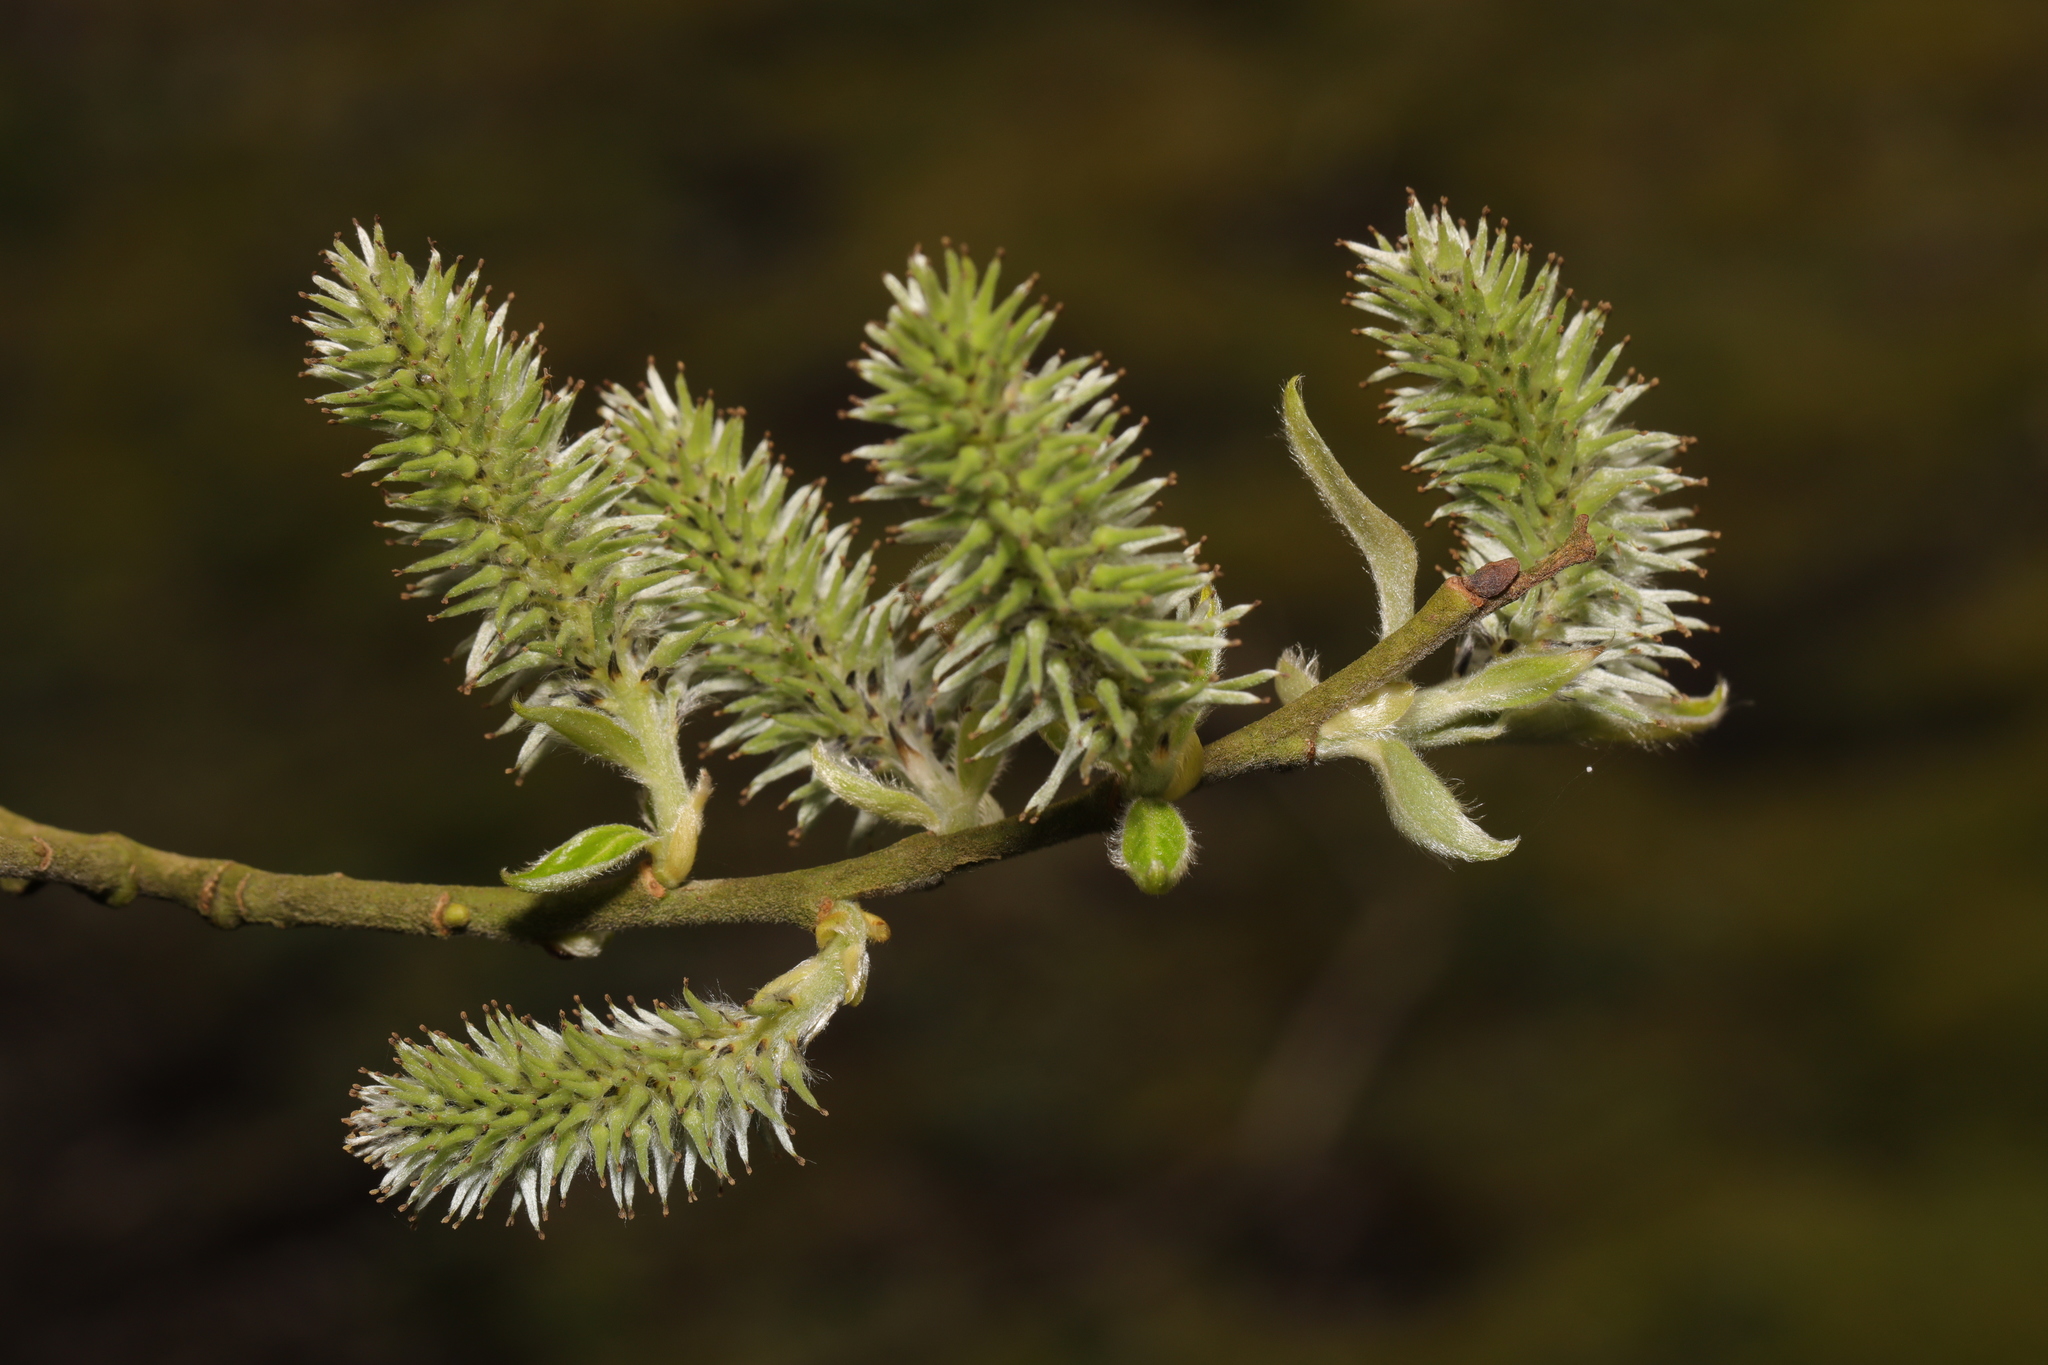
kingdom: Plantae
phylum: Tracheophyta
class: Magnoliopsida
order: Malpighiales
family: Salicaceae
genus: Salix
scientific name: Salix cinerea
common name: Common sallow
